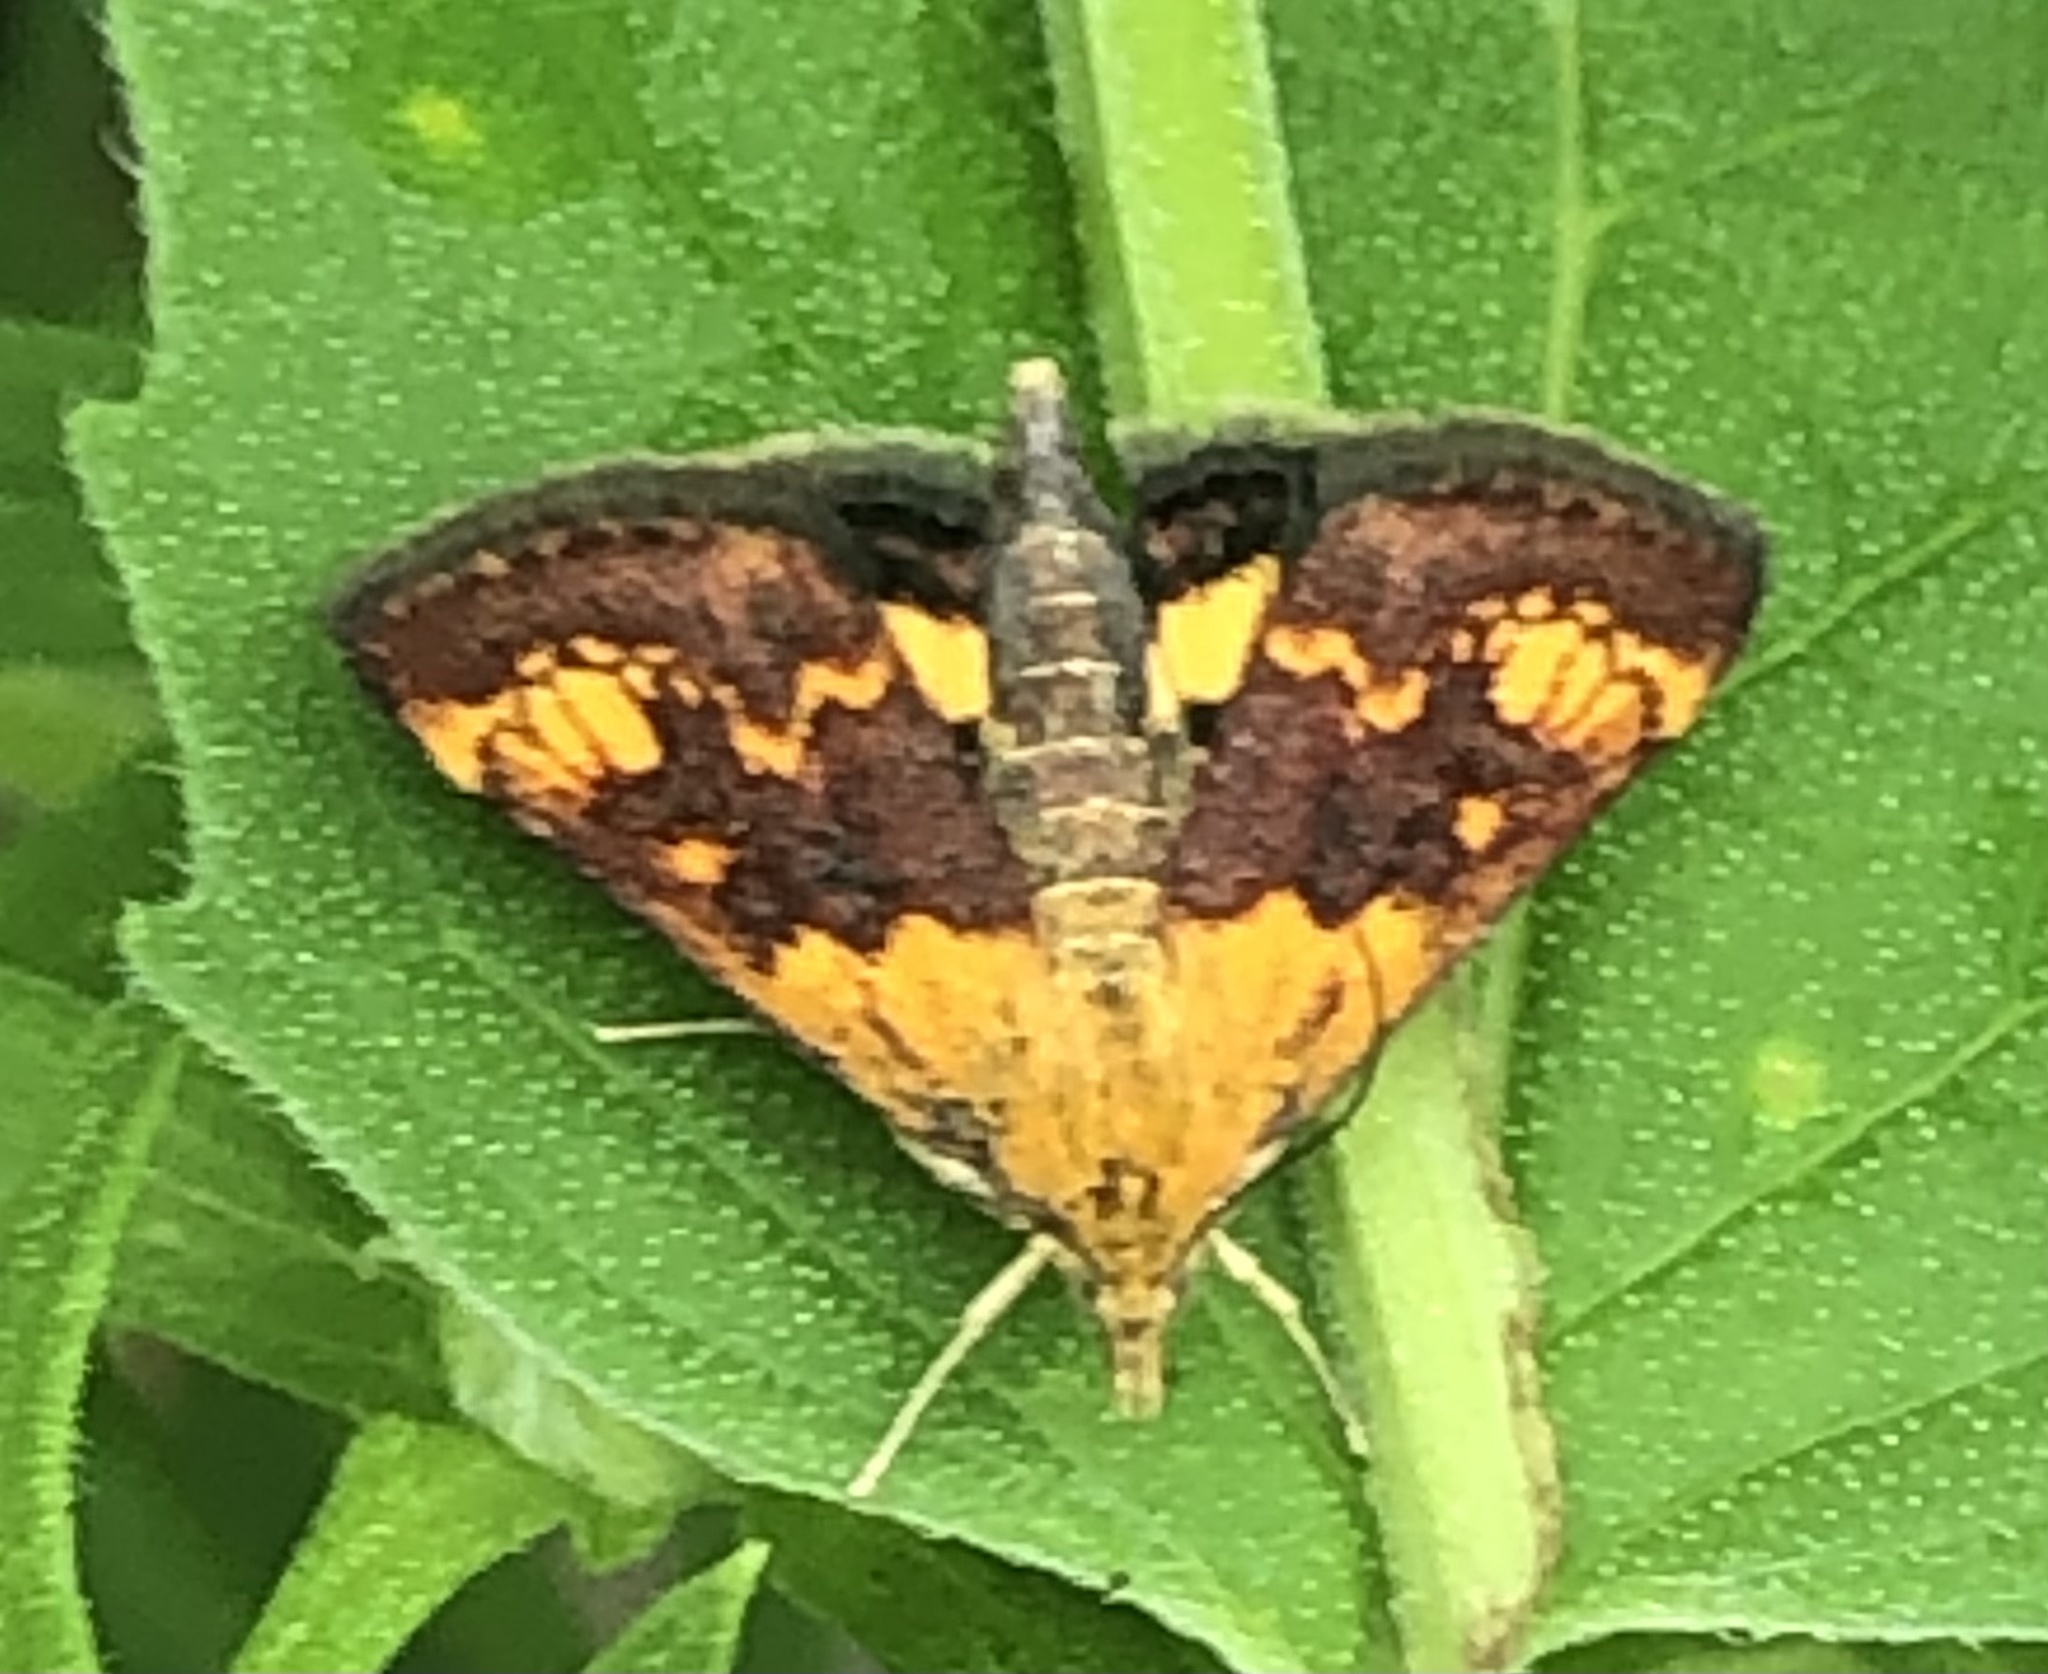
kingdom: Animalia
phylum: Arthropoda
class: Insecta
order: Lepidoptera
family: Crambidae
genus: Pyrausta
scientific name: Pyrausta orphisalis
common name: Orange mint moth
